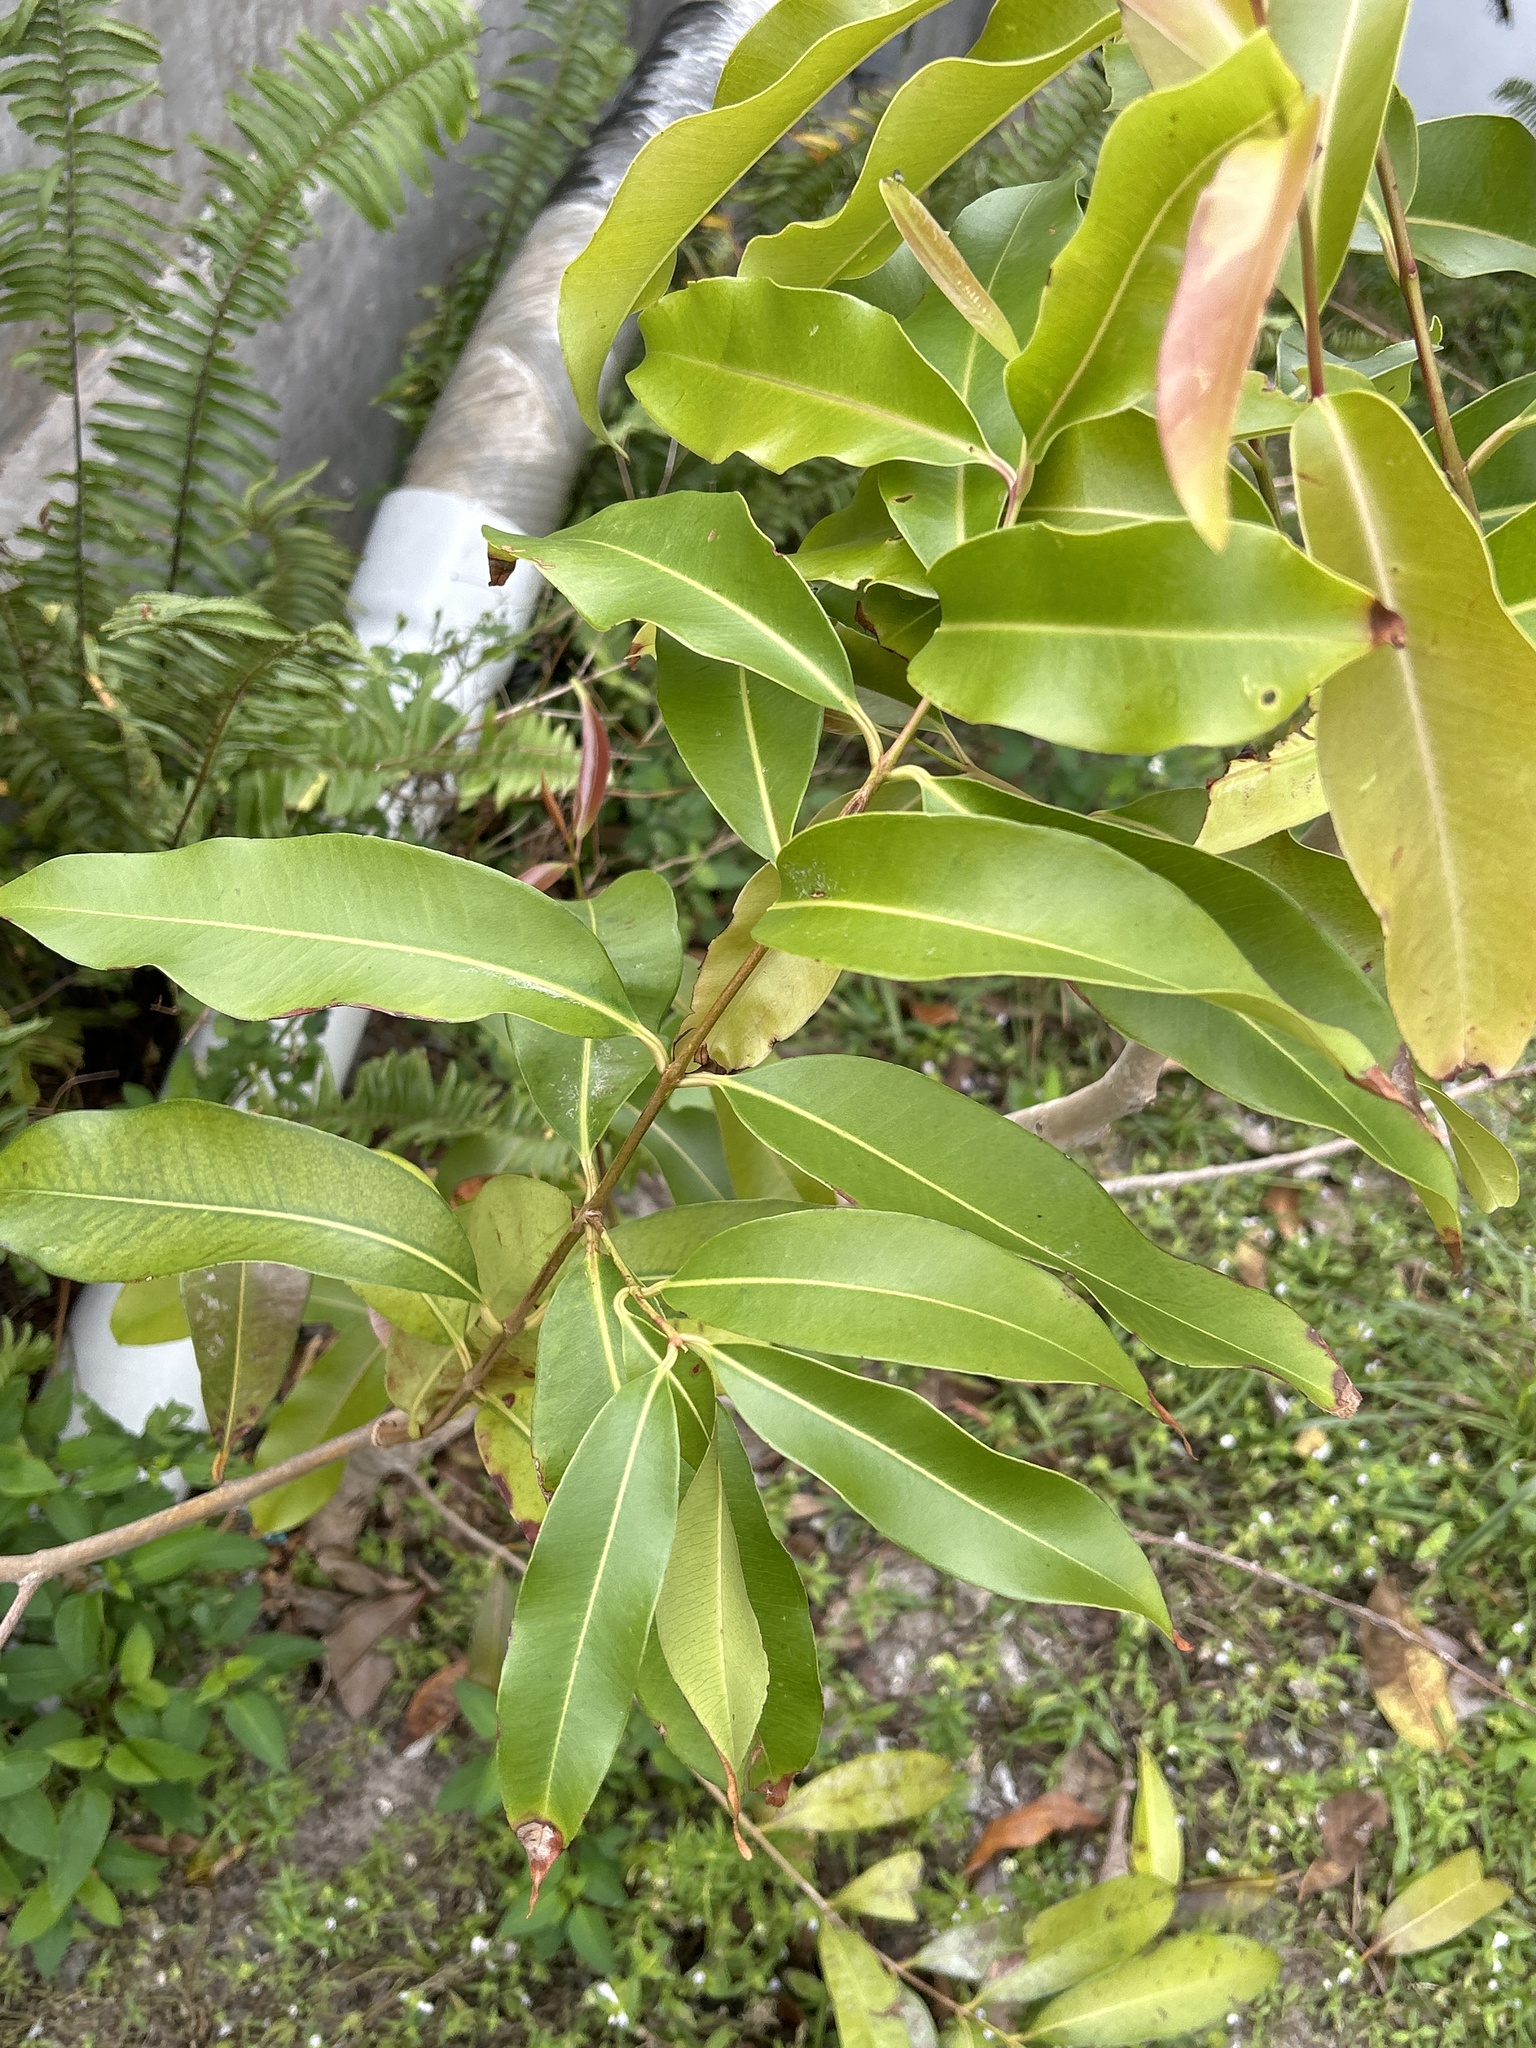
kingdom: Plantae
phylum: Tracheophyta
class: Magnoliopsida
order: Myrtales
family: Myrtaceae
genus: Syzygium
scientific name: Syzygium cumini
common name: Java plum
